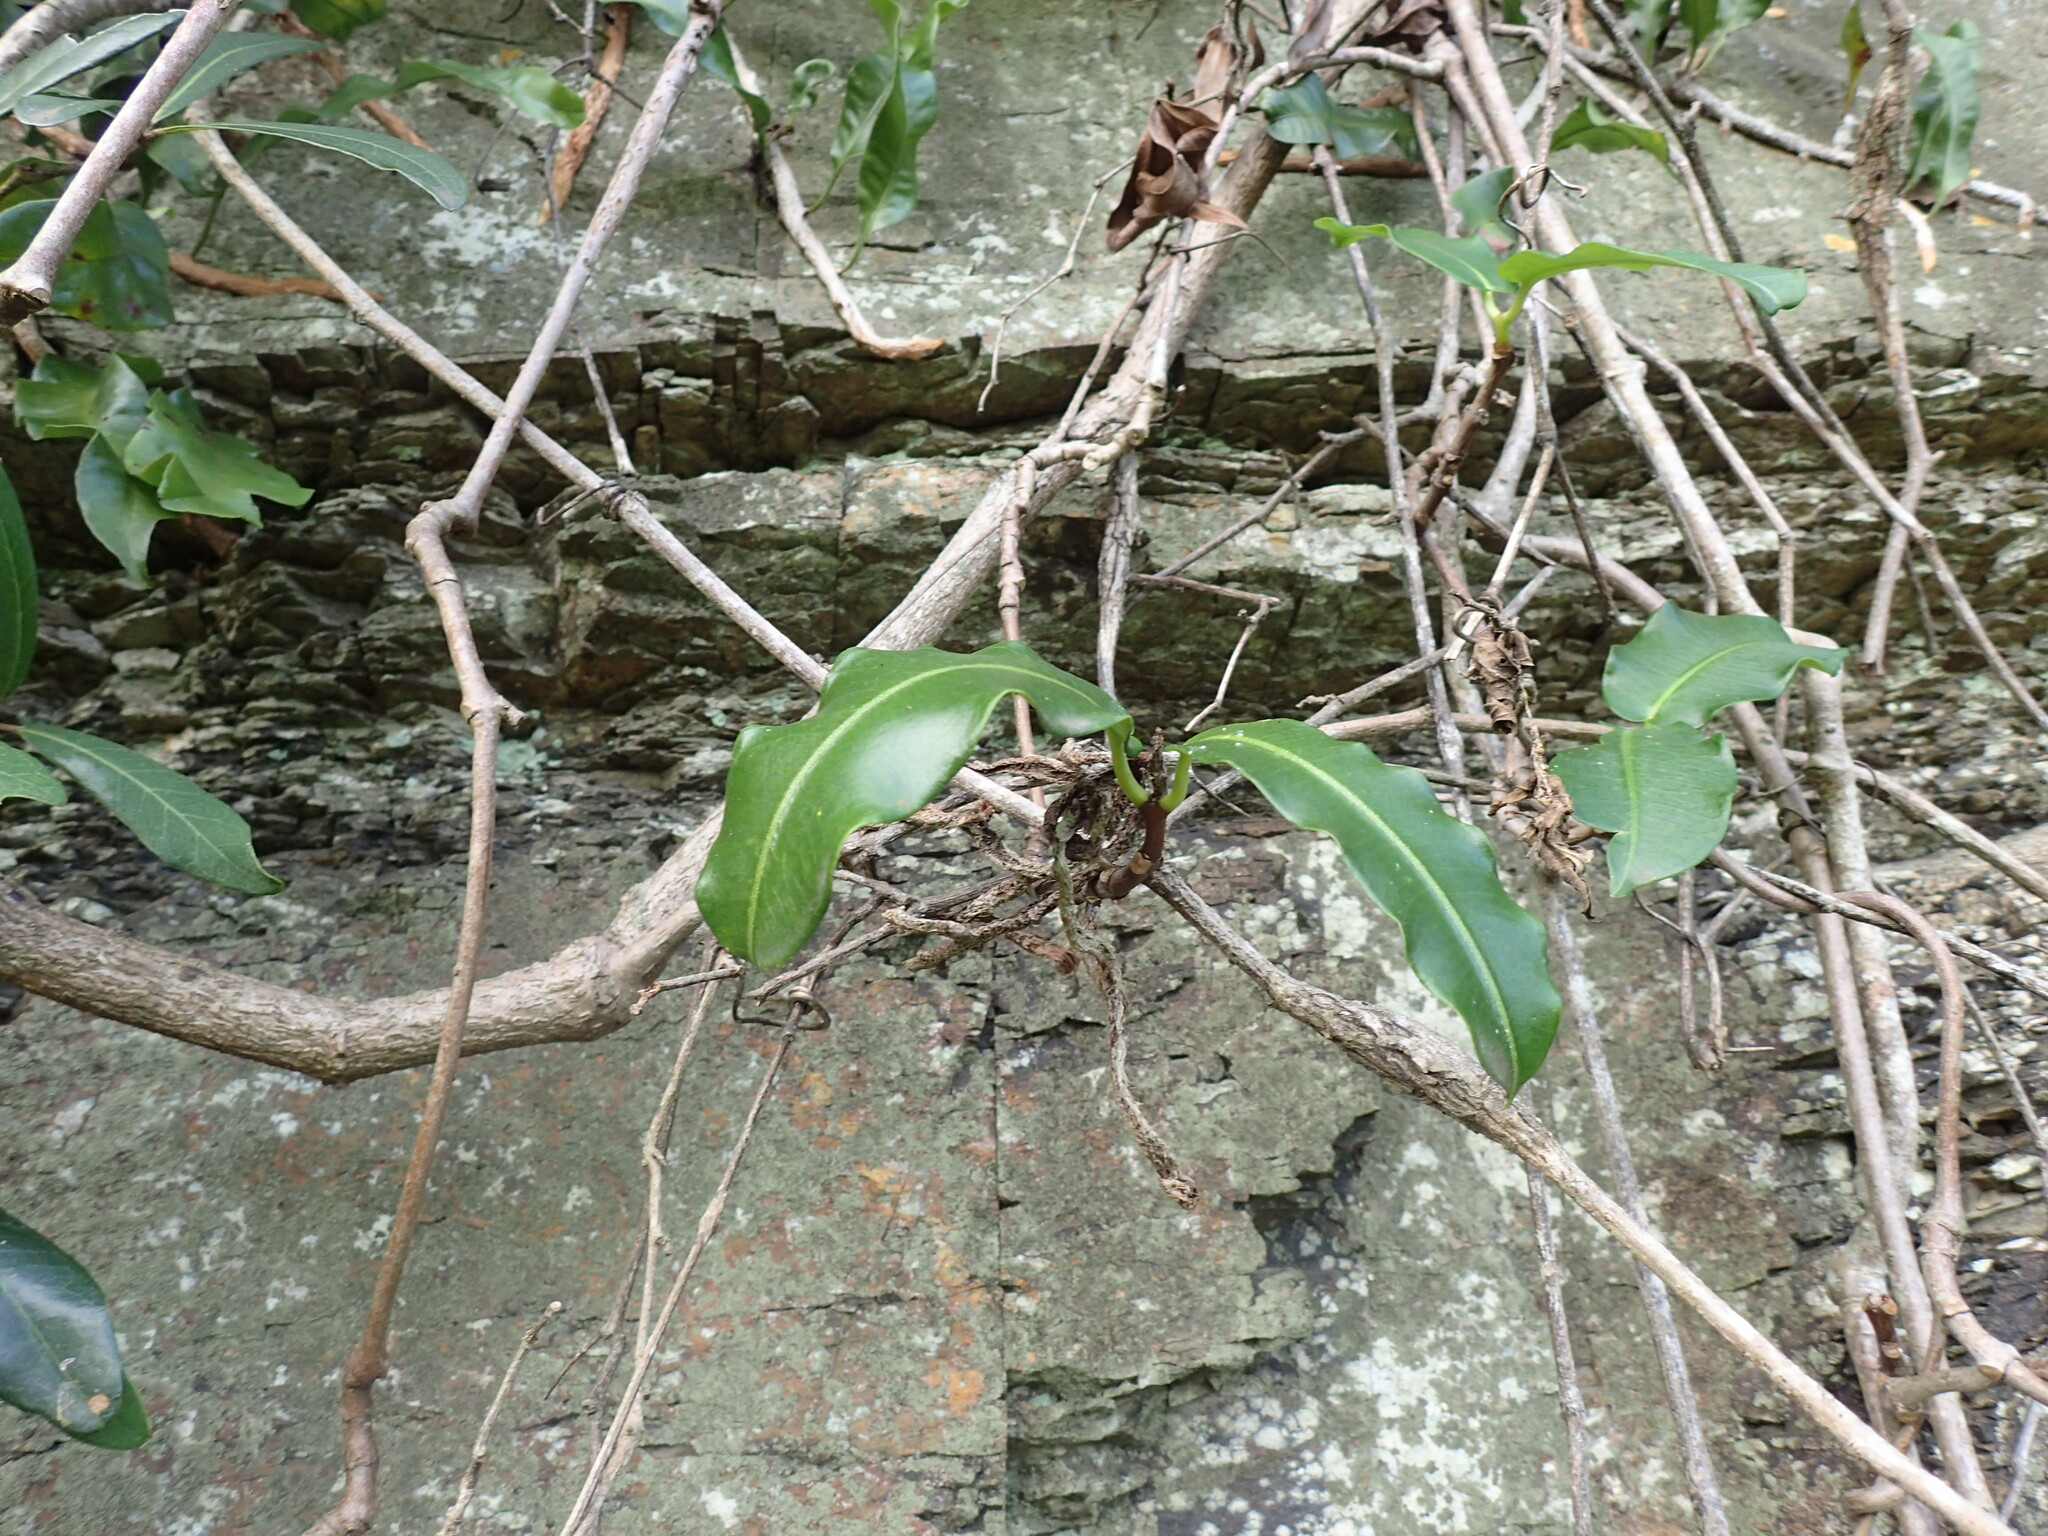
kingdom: Plantae
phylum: Tracheophyta
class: Magnoliopsida
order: Gentianales
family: Apocynaceae
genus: Petopentia
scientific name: Petopentia natalensis
